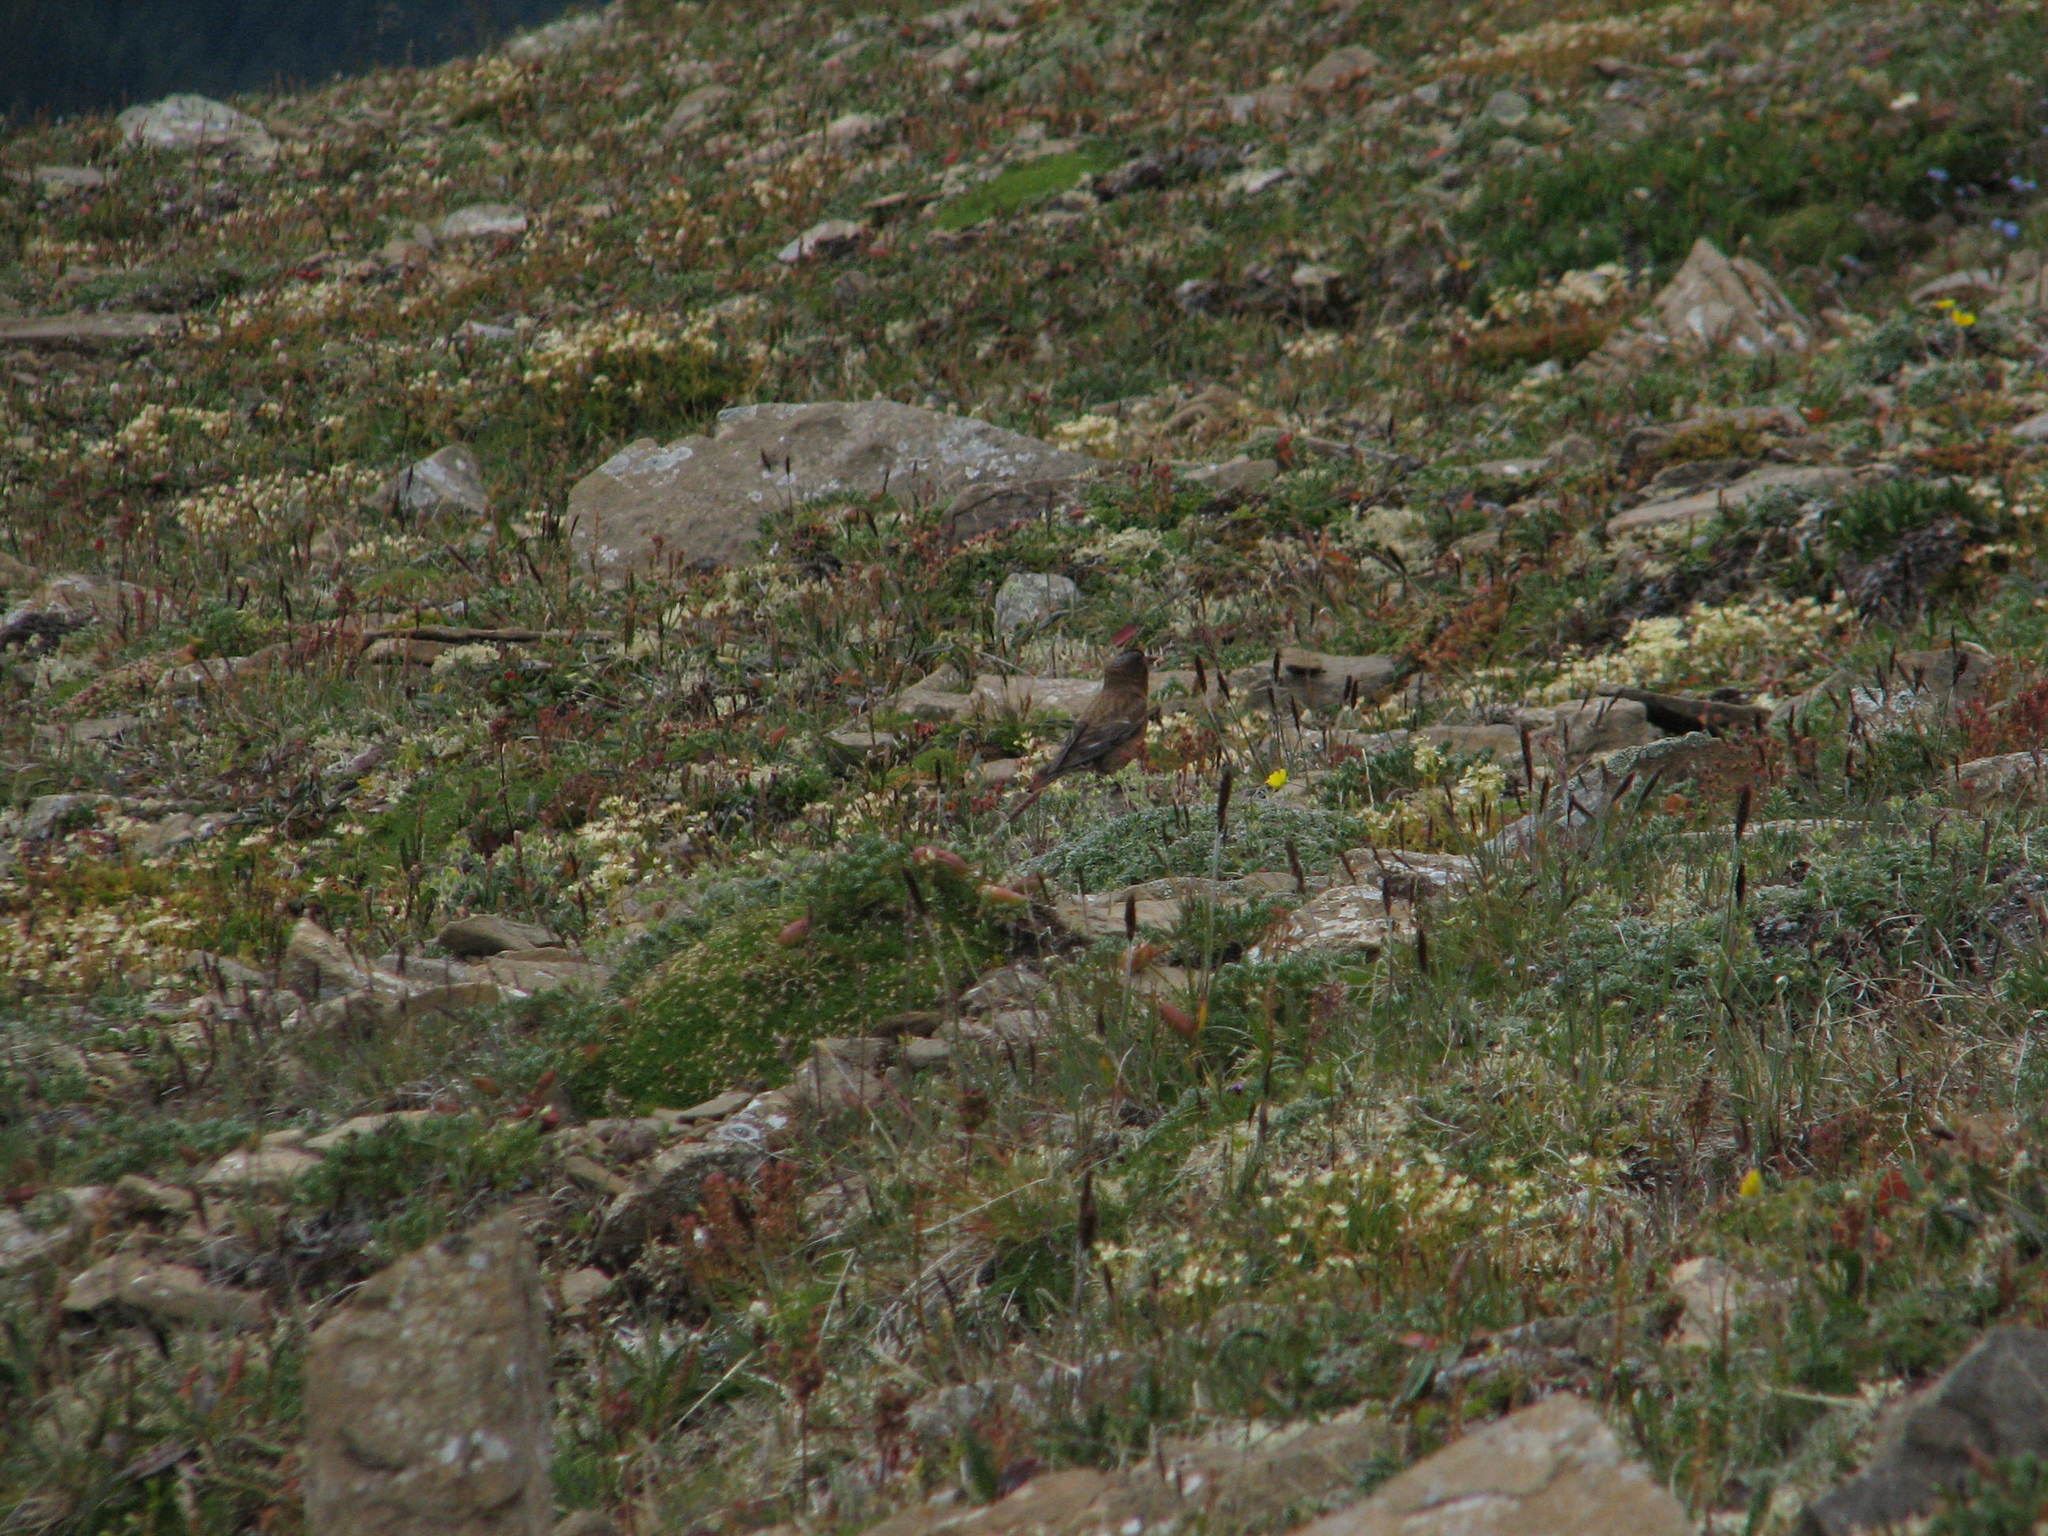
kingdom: Animalia
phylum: Chordata
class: Aves
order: Passeriformes
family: Fringillidae
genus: Leucosticte
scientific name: Leucosticte tephrocotis
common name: Gray-crowned rosy-finch
